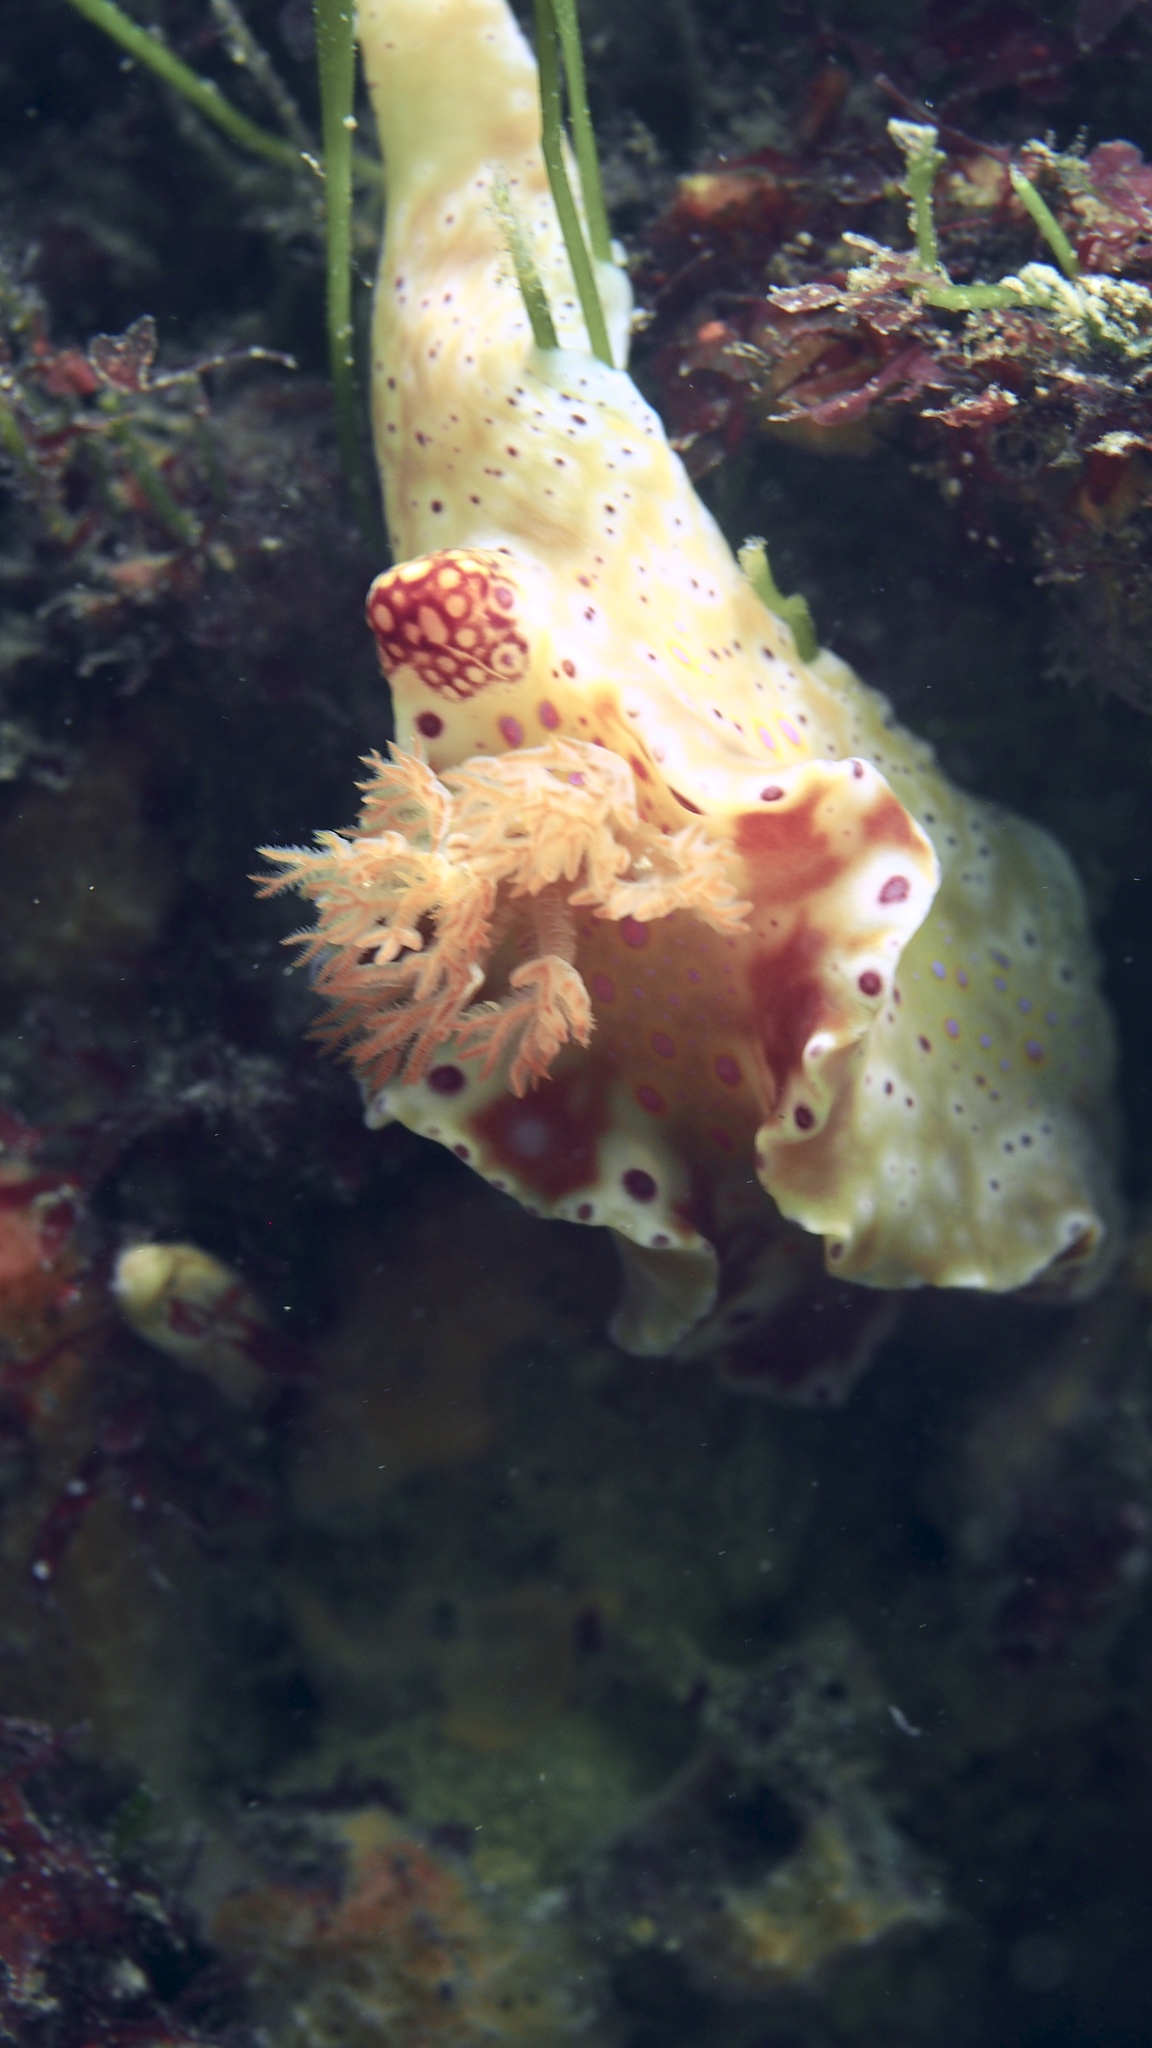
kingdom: Animalia
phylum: Mollusca
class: Gastropoda
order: Nudibranchia
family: Chromodorididae
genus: Ceratosoma
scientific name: Ceratosoma brevicaudatum
